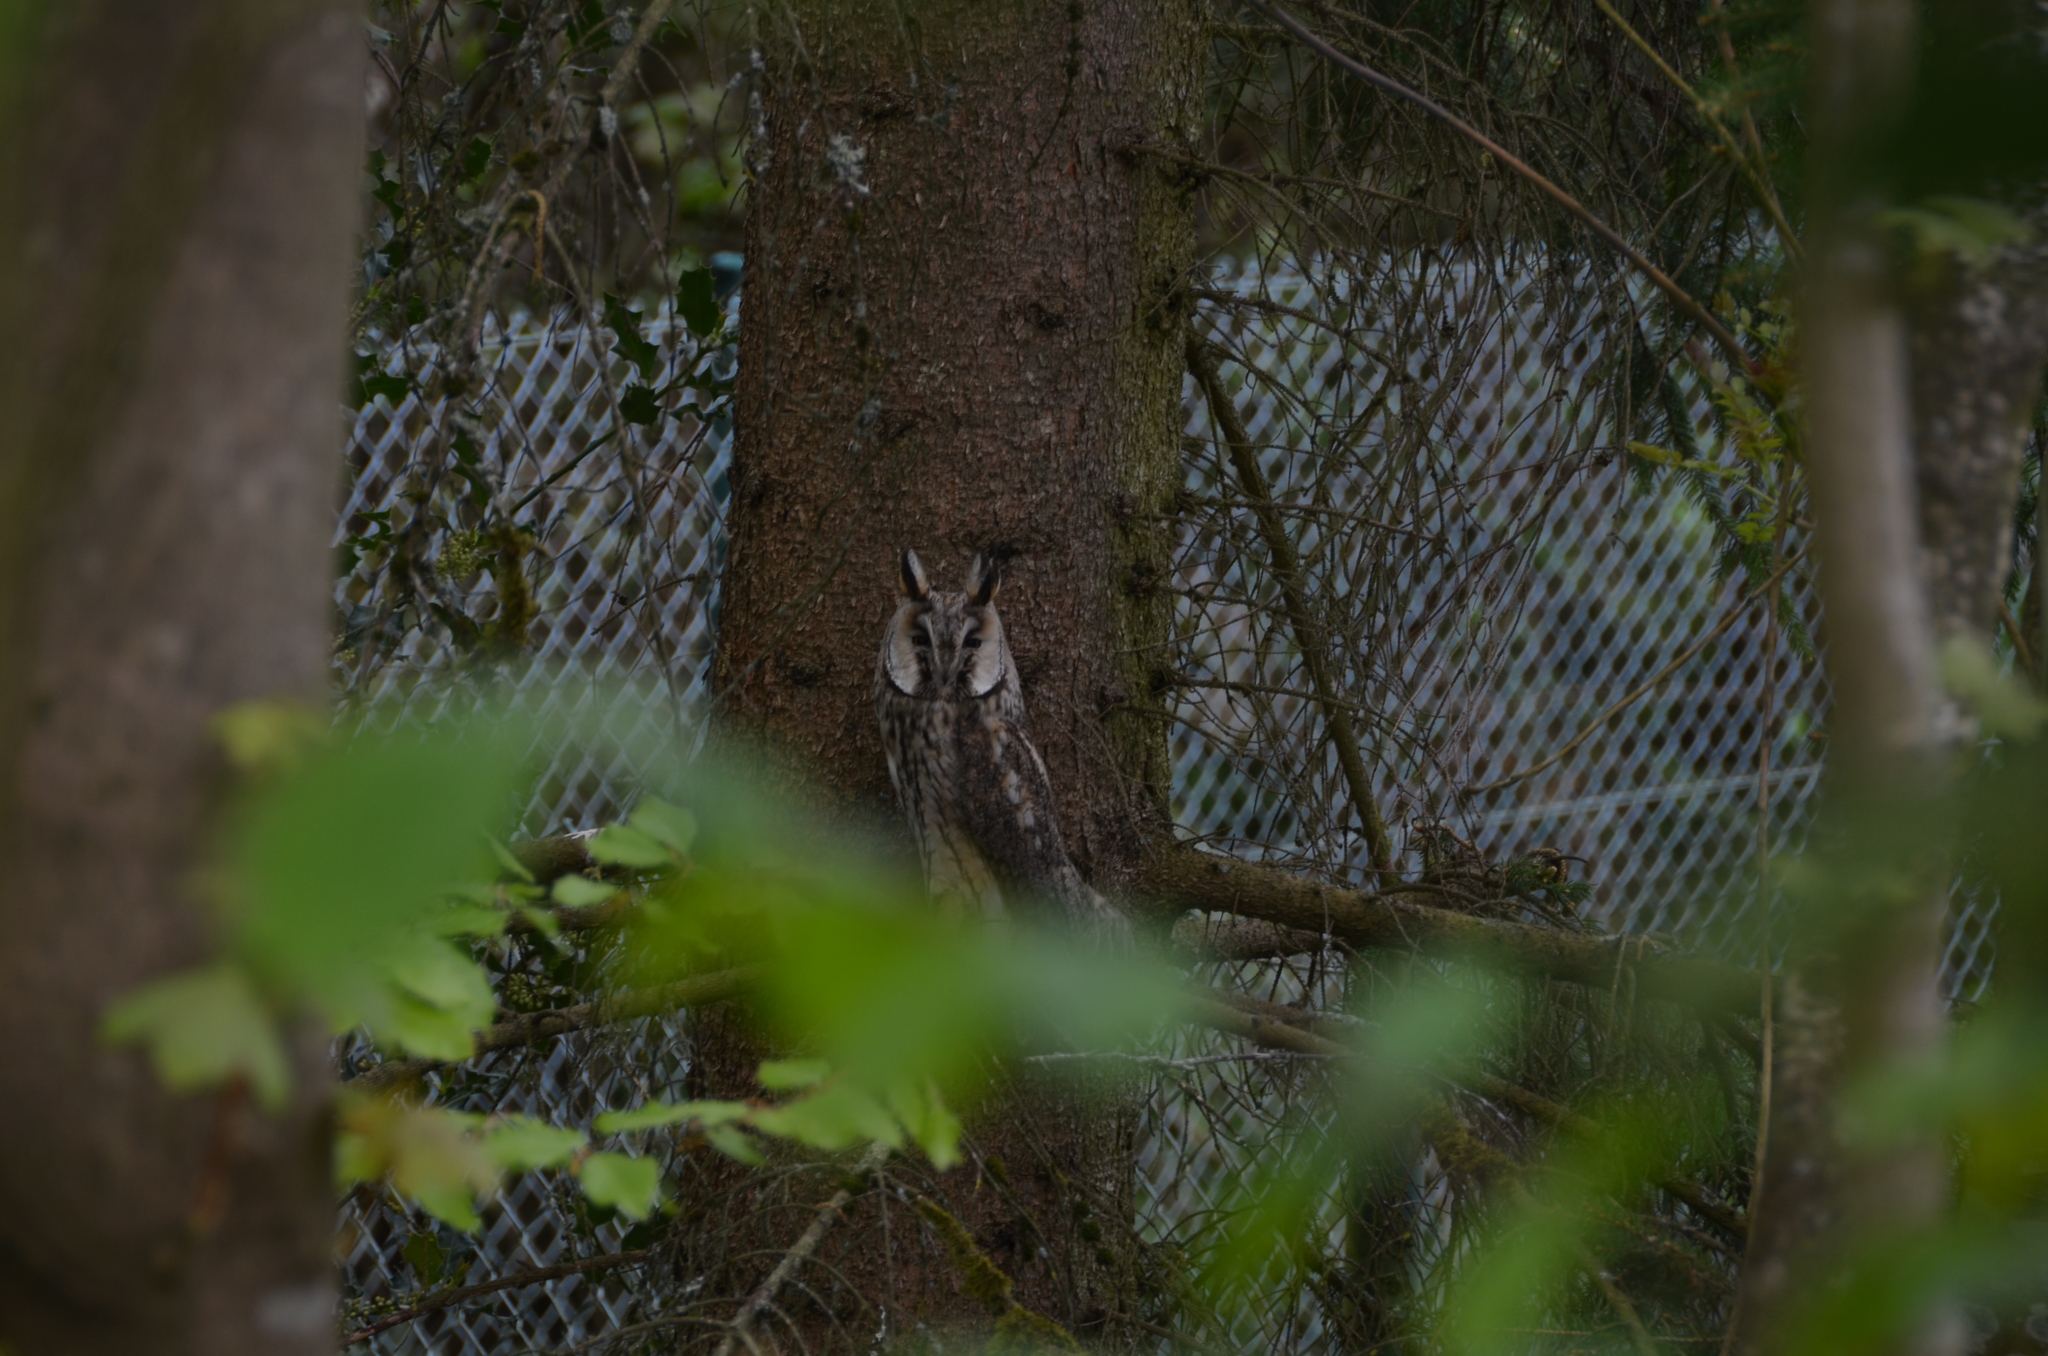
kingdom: Animalia
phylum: Chordata
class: Aves
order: Strigiformes
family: Strigidae
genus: Asio
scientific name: Asio otus
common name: Long-eared owl
